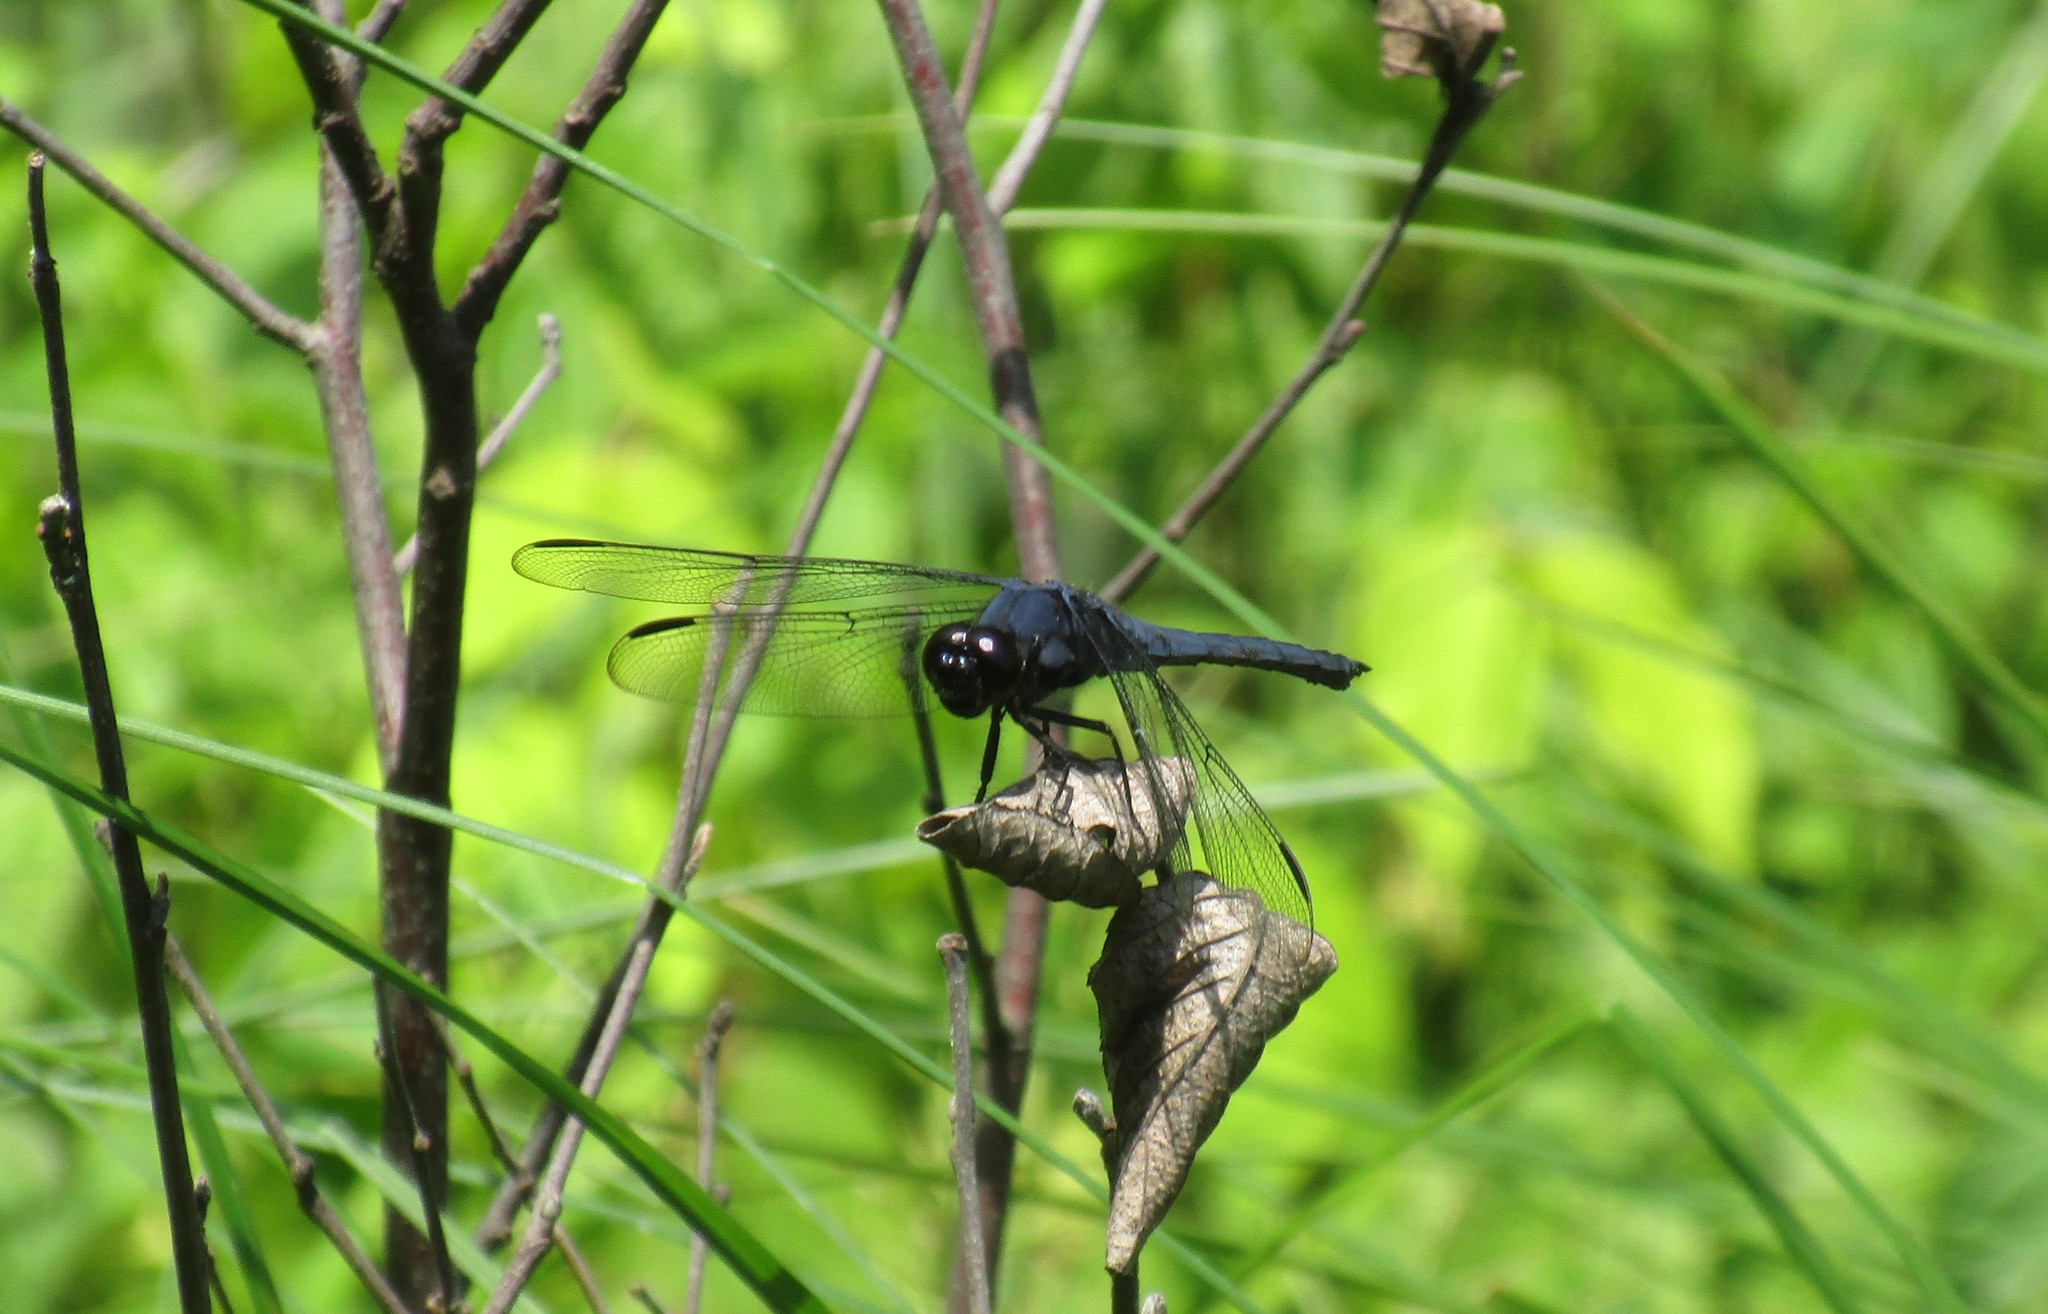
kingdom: Animalia
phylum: Arthropoda
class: Insecta
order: Odonata
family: Libellulidae
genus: Libellula
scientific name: Libellula incesta
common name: Slaty skimmer
